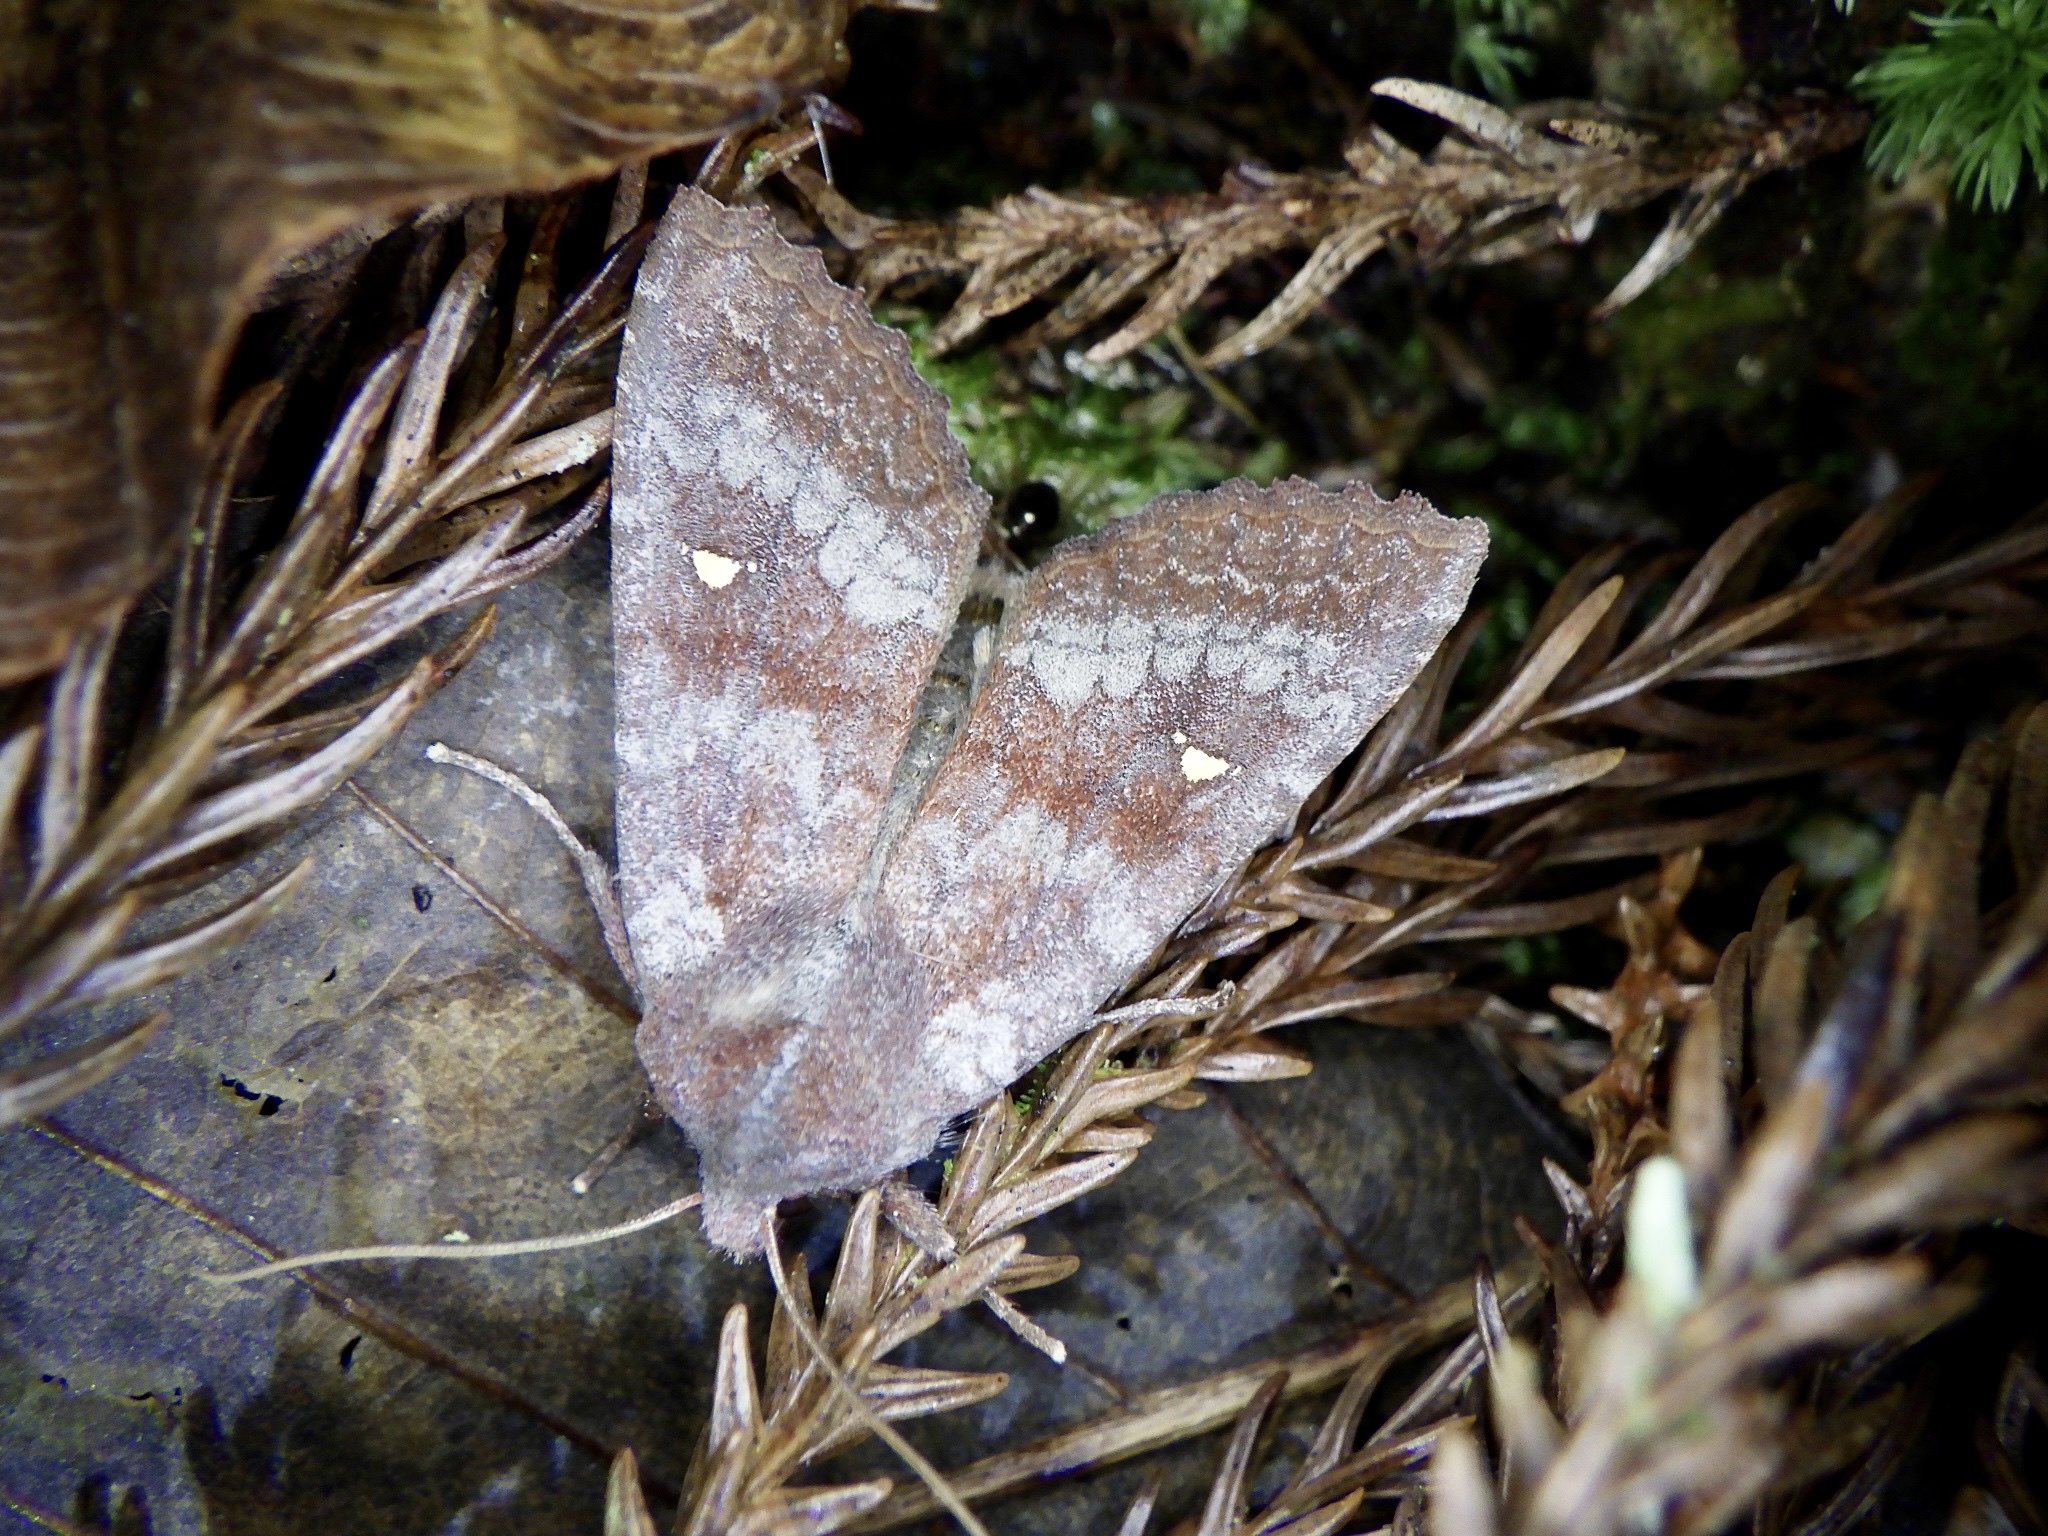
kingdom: Animalia
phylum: Arthropoda
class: Insecta
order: Lepidoptera
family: Noctuidae
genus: Eupsilia
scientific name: Eupsilia unipuncta
